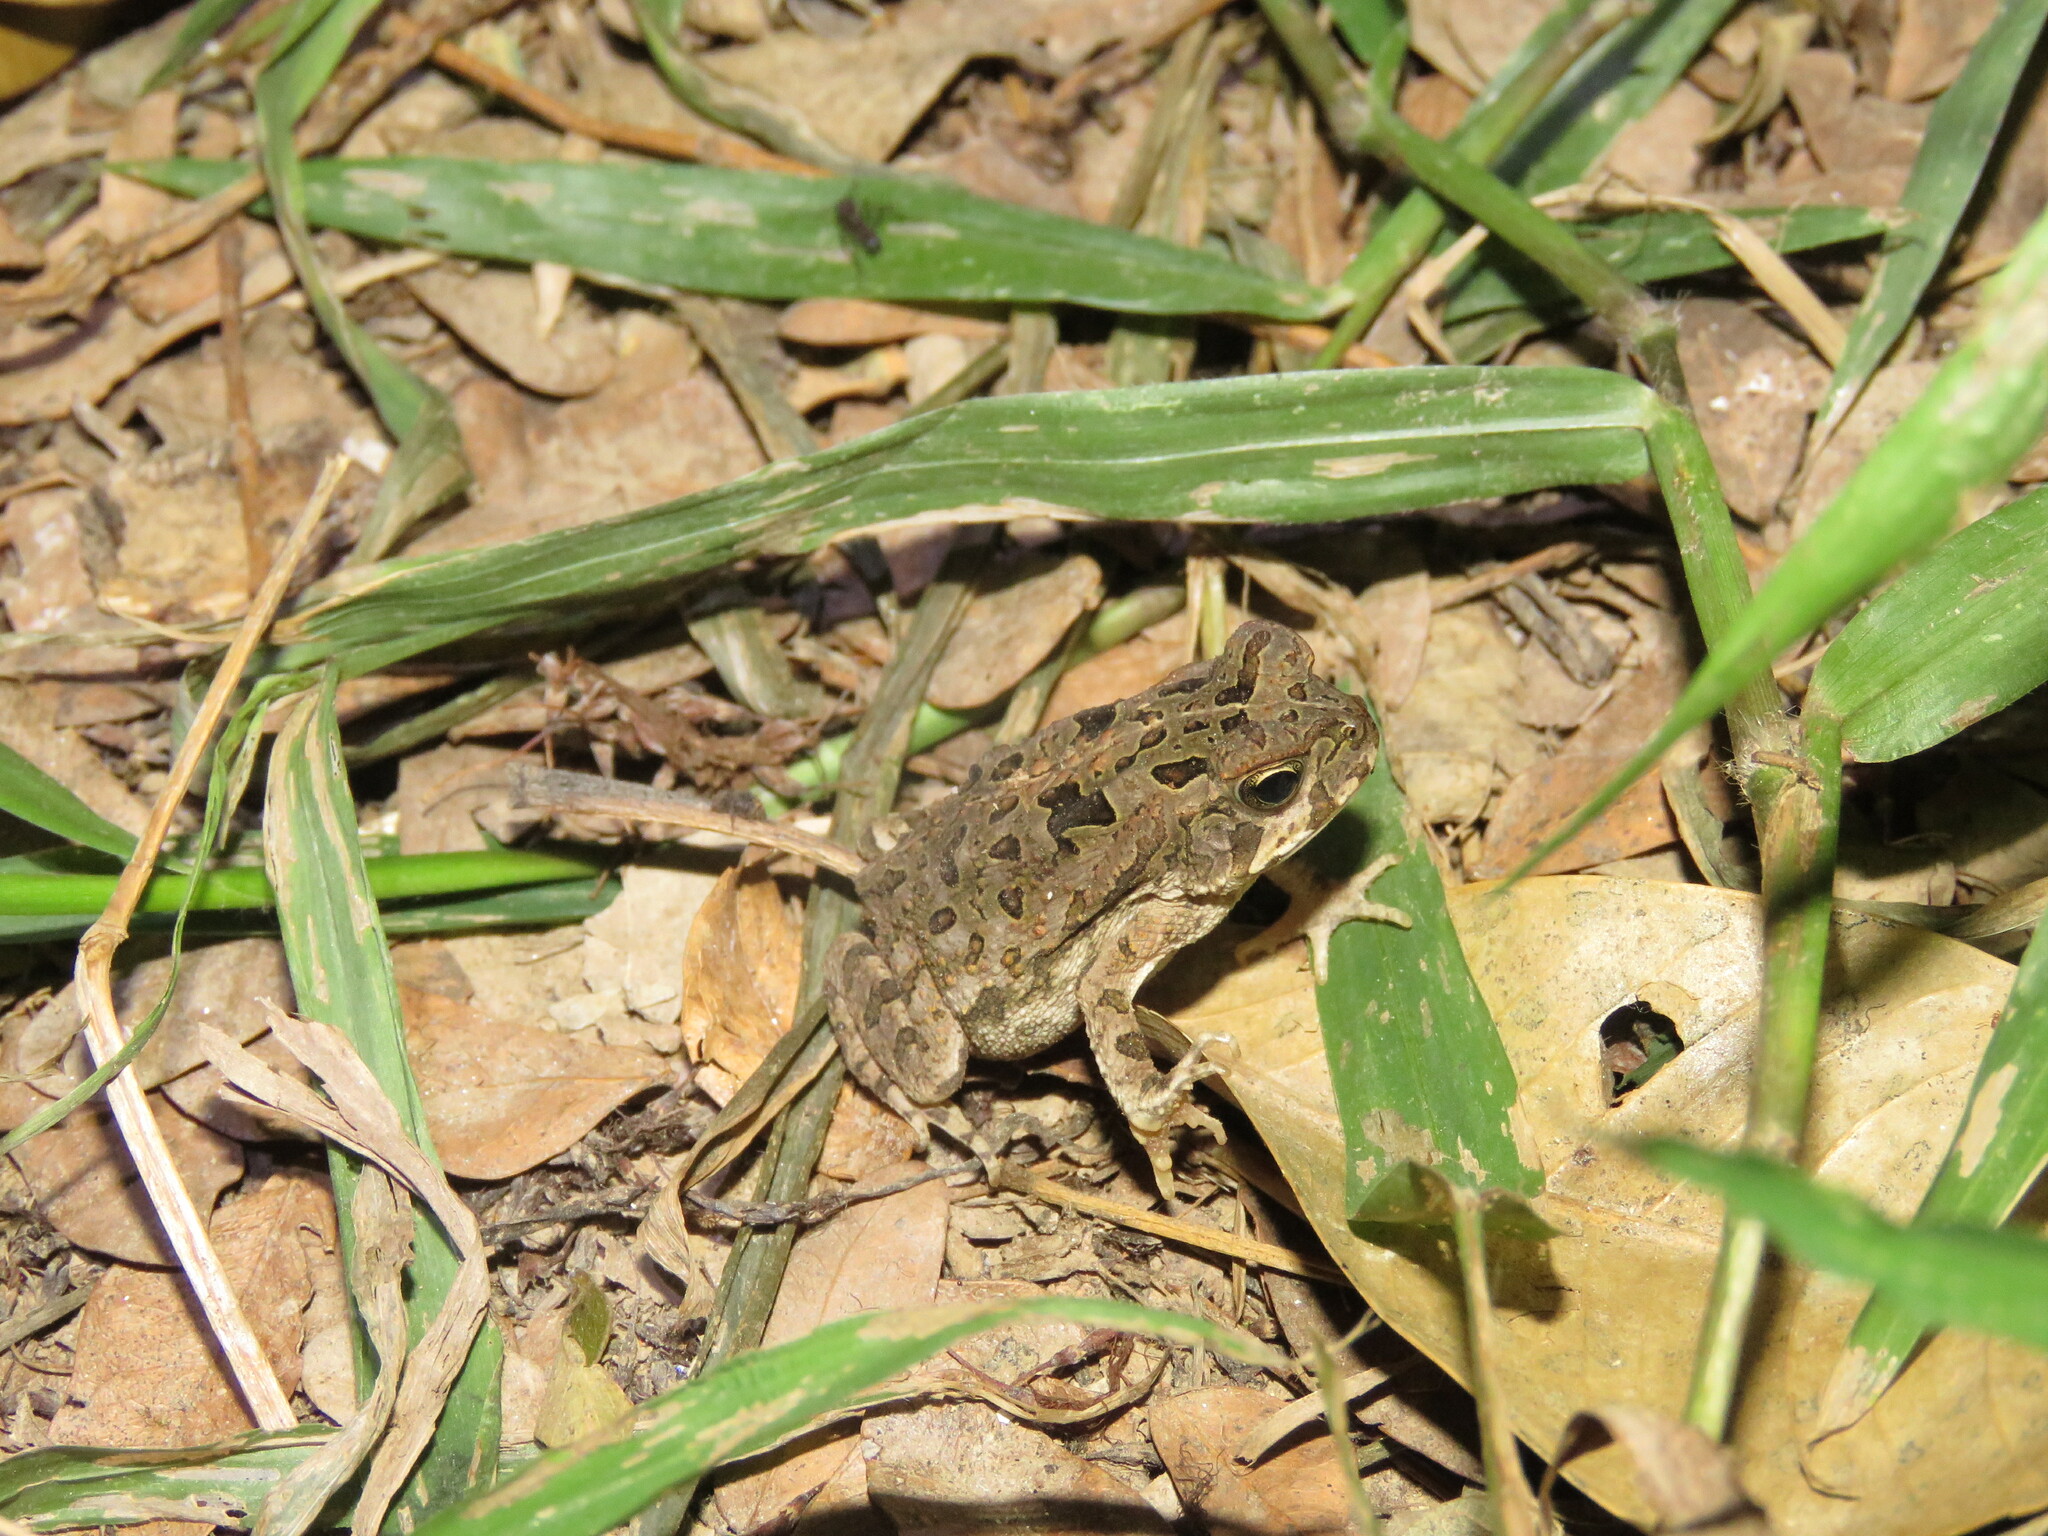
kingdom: Animalia
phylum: Chordata
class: Amphibia
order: Anura
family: Bufonidae
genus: Rhinella
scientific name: Rhinella marina
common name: Cane toad
